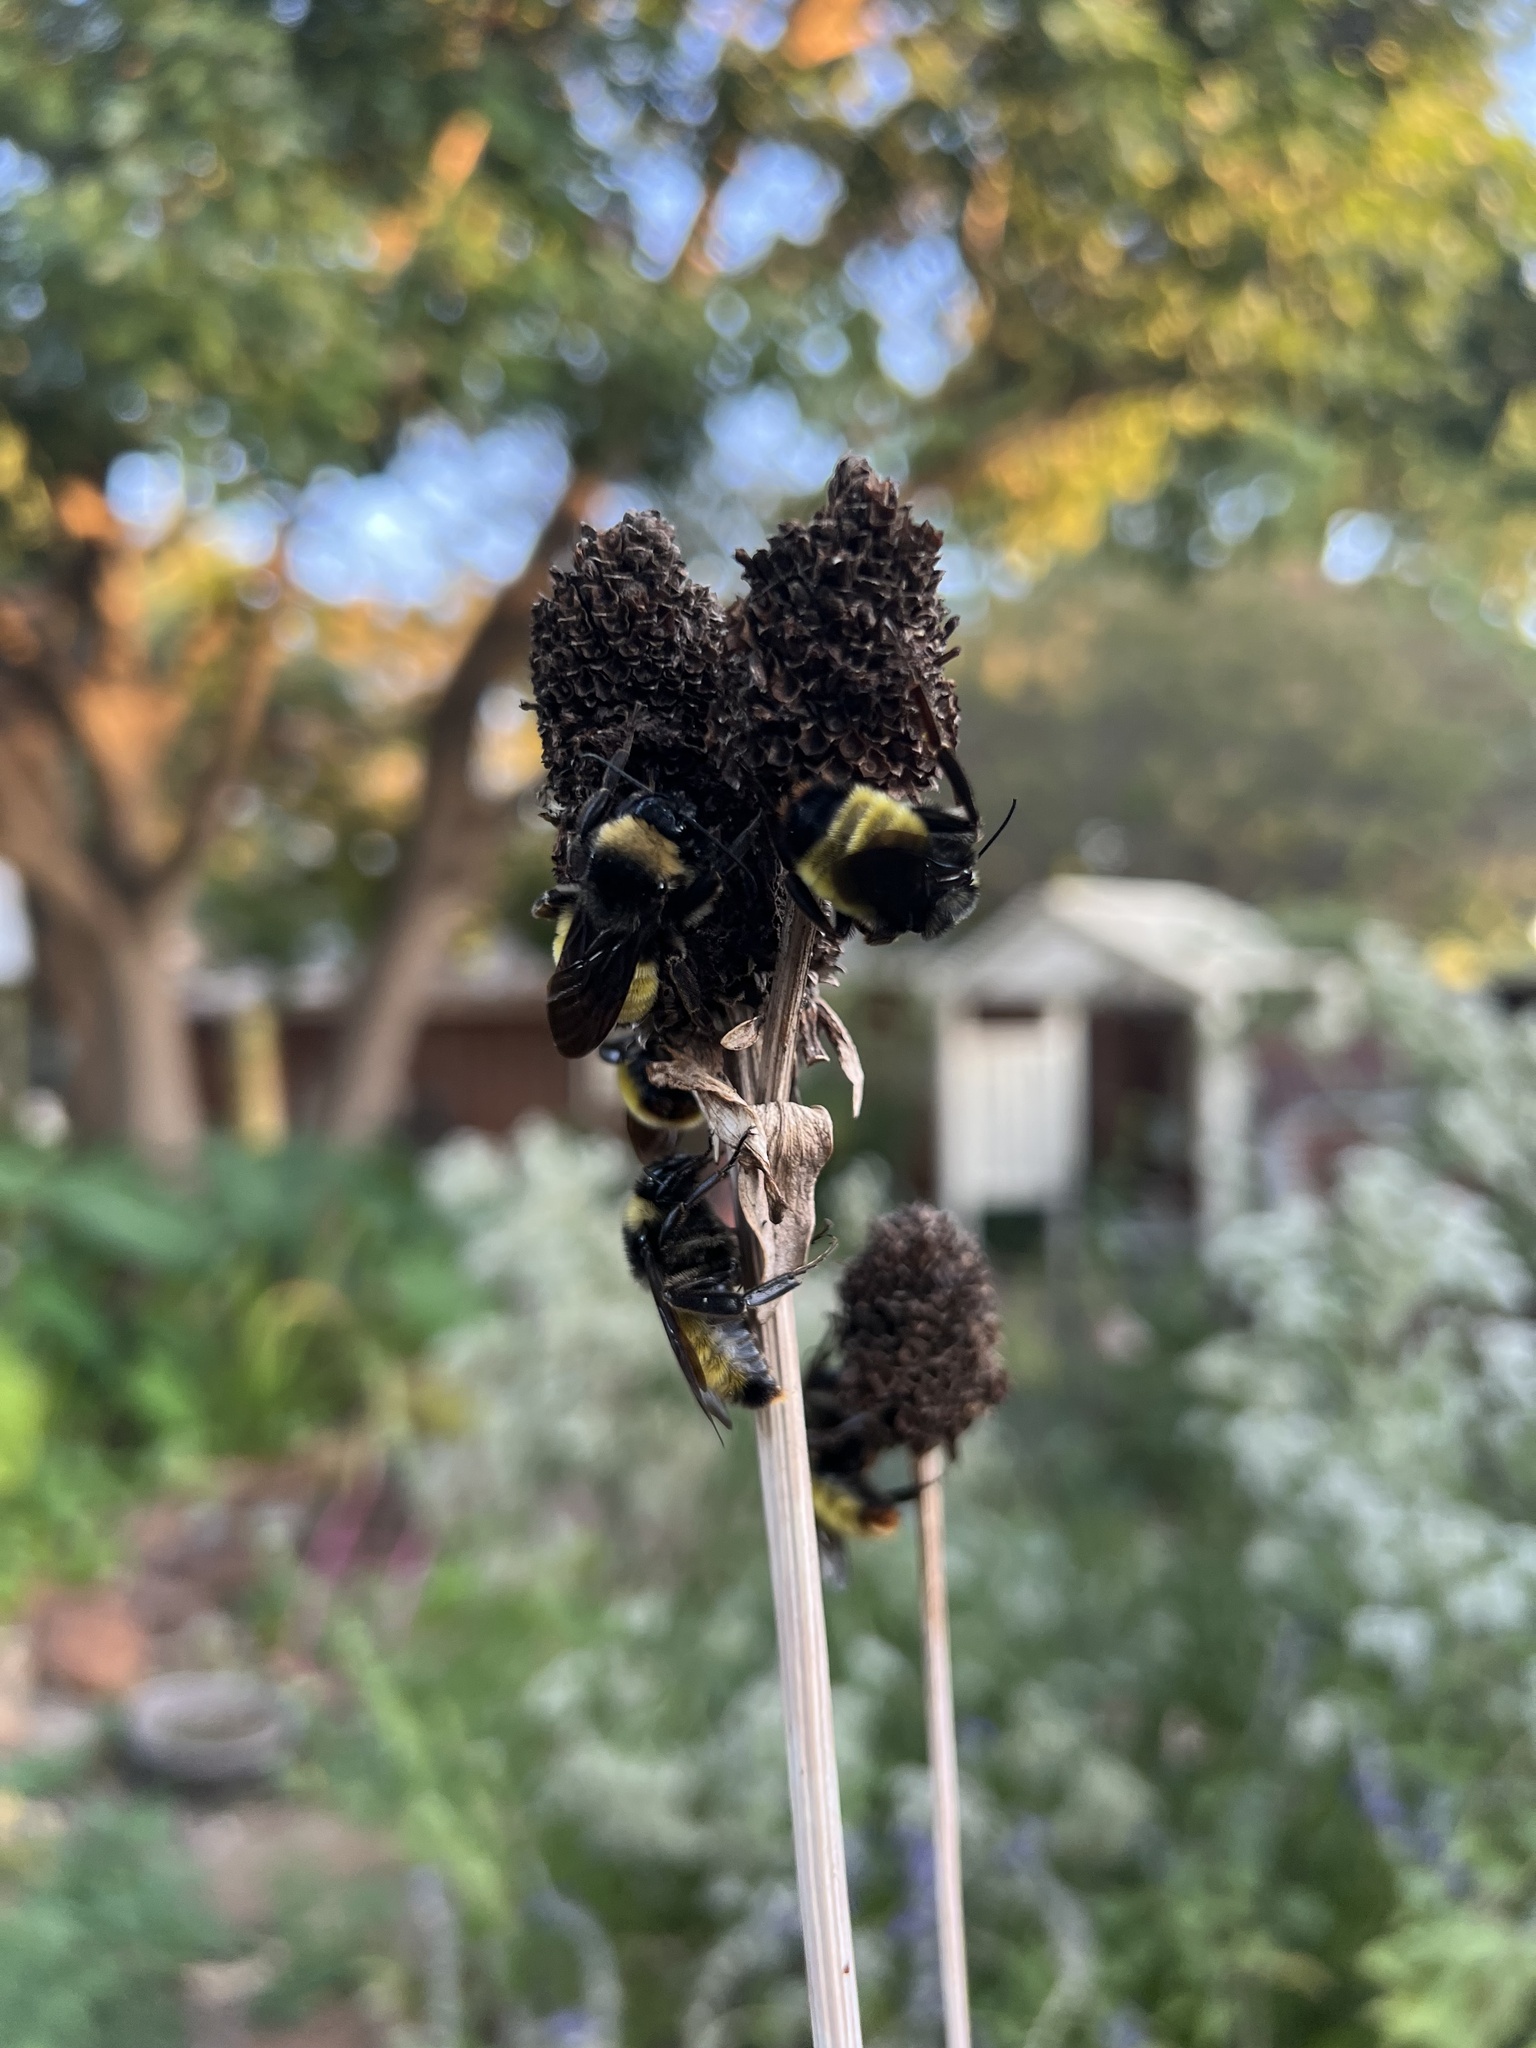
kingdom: Animalia
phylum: Arthropoda
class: Insecta
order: Hymenoptera
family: Apidae
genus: Bombus
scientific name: Bombus pensylvanicus
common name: Bumble bee
